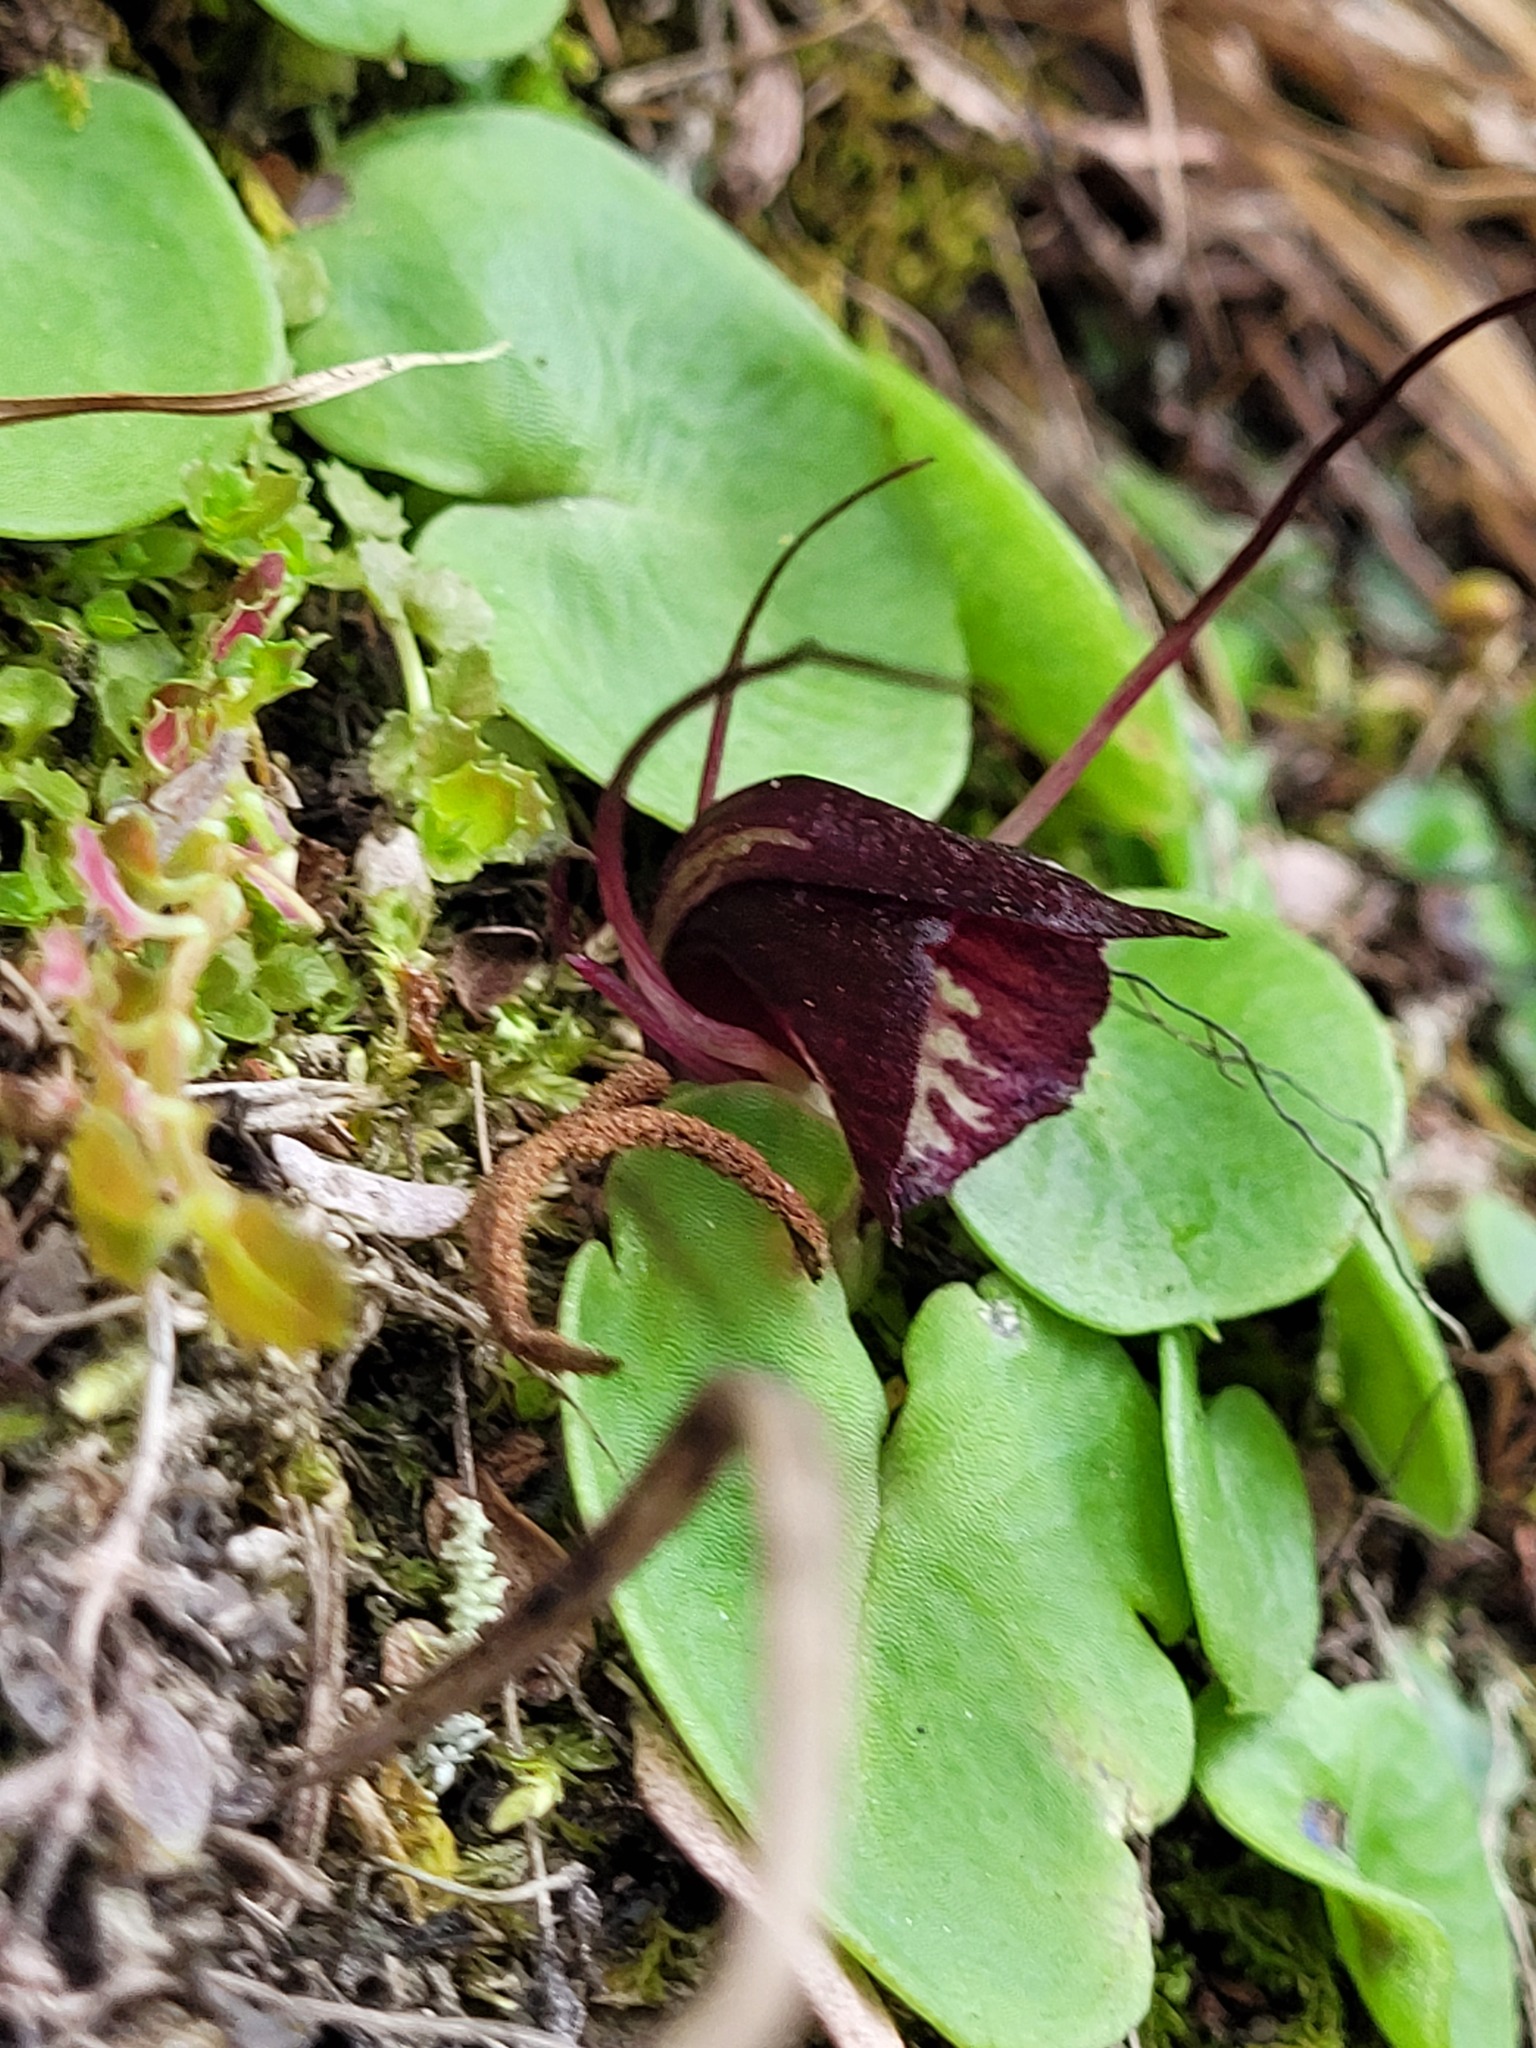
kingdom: Plantae
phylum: Tracheophyta
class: Liliopsida
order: Asparagales
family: Orchidaceae
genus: Corybas
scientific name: Corybas macranthus
